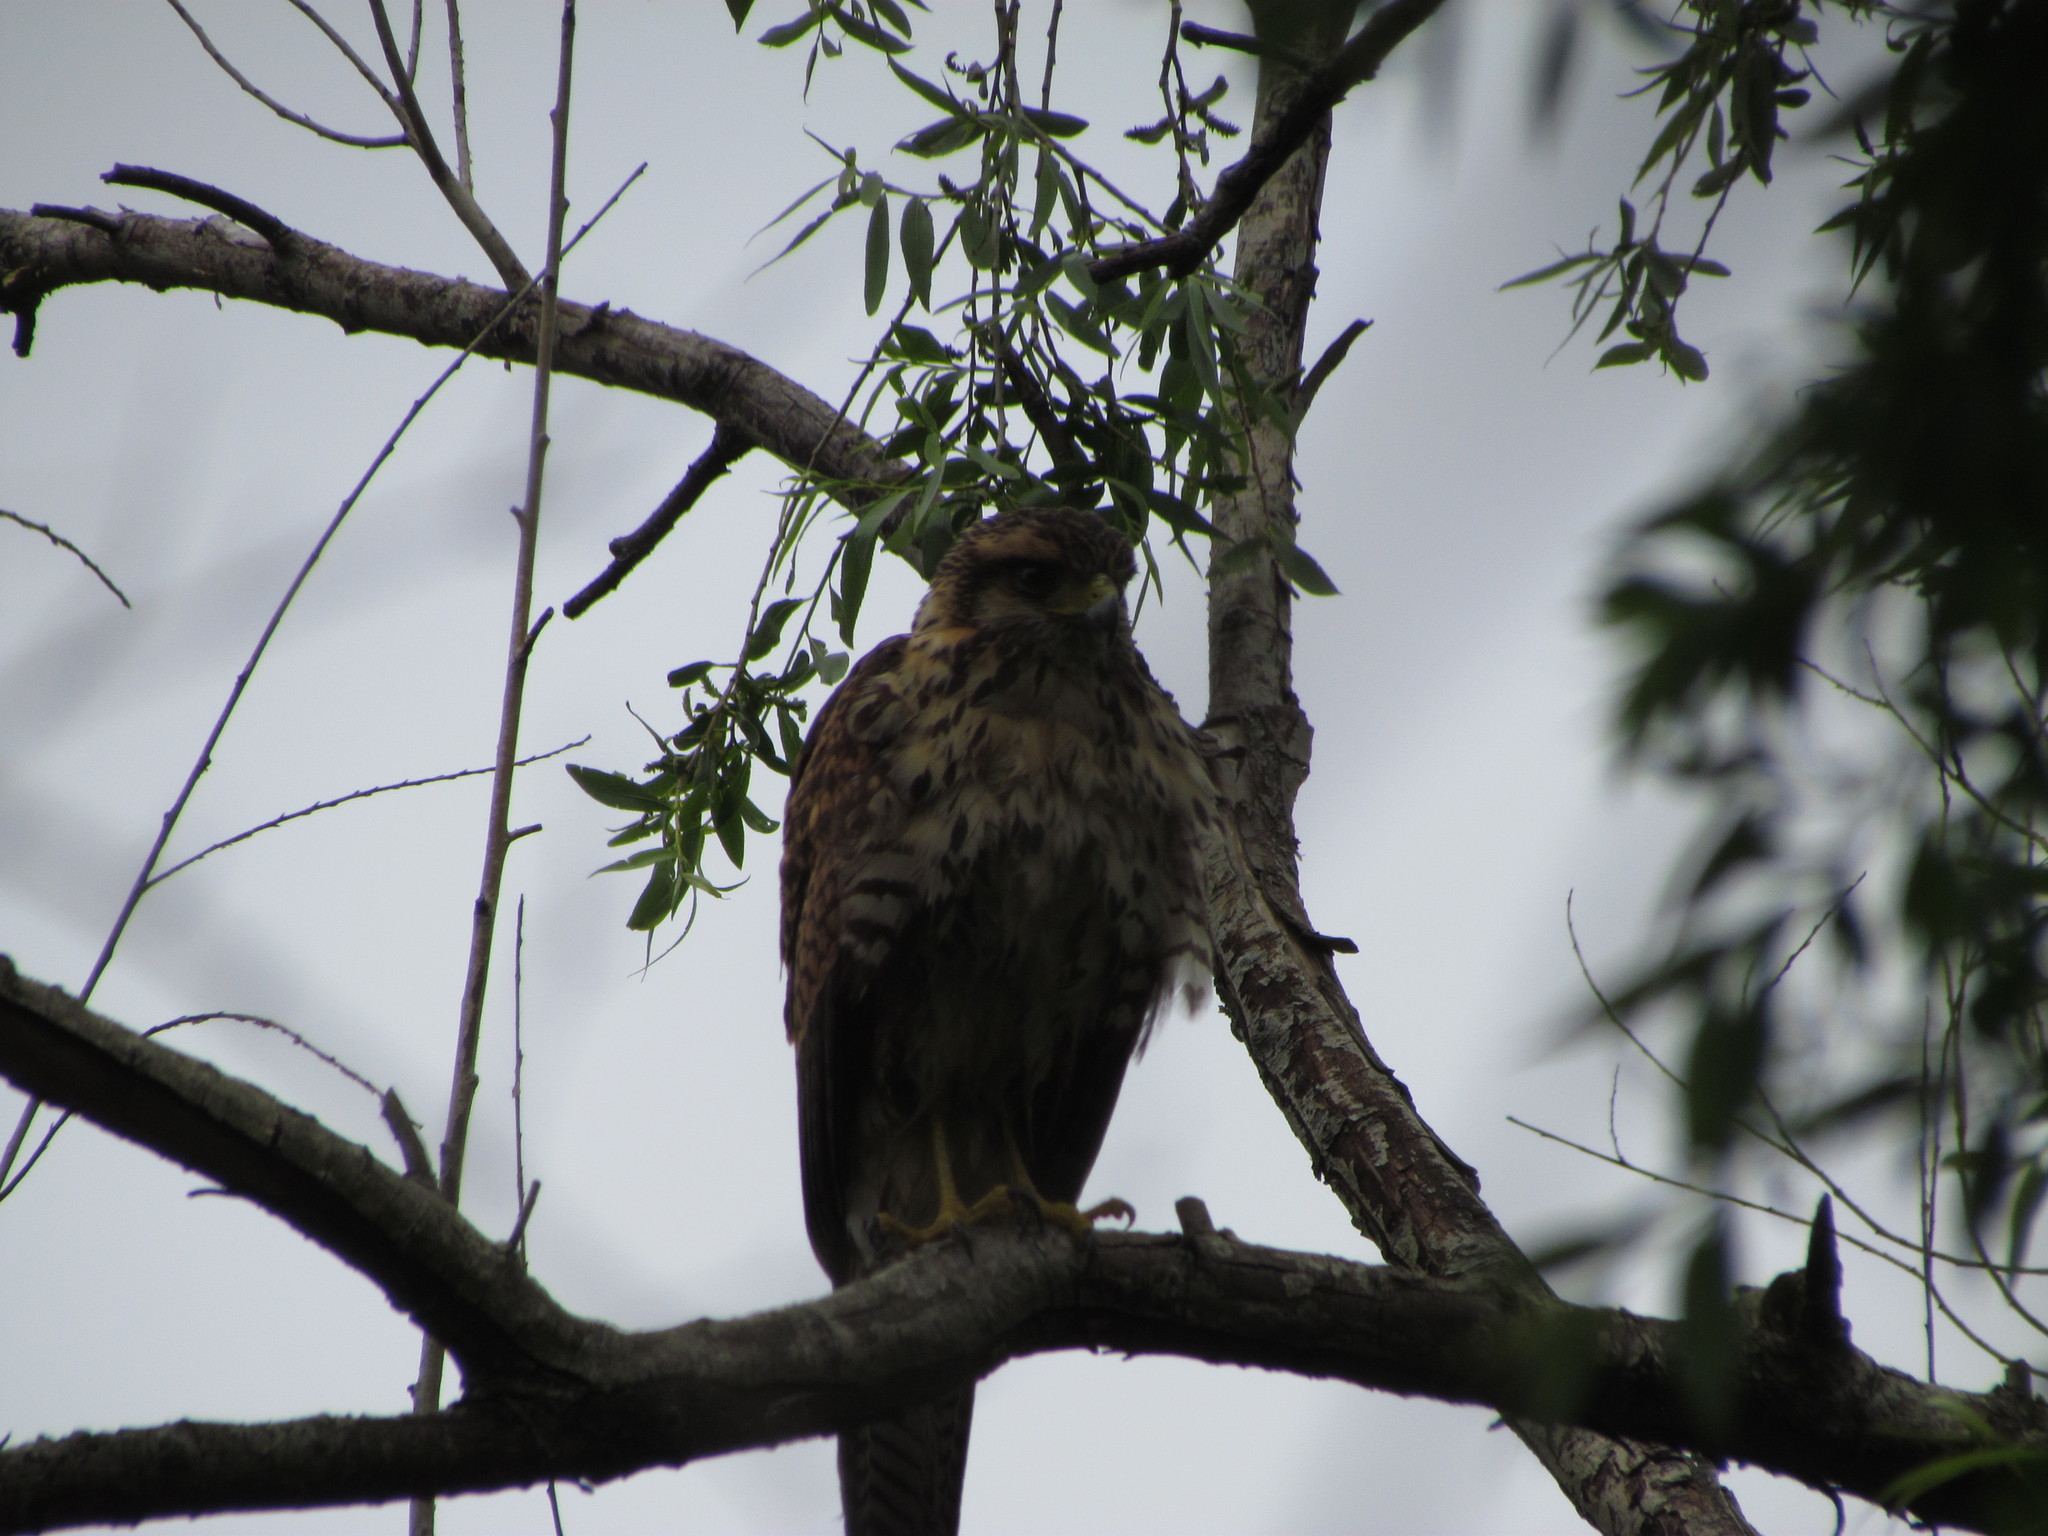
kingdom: Animalia
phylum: Chordata
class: Aves
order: Accipitriformes
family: Accipitridae
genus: Parabuteo
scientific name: Parabuteo unicinctus
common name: Harris's hawk
